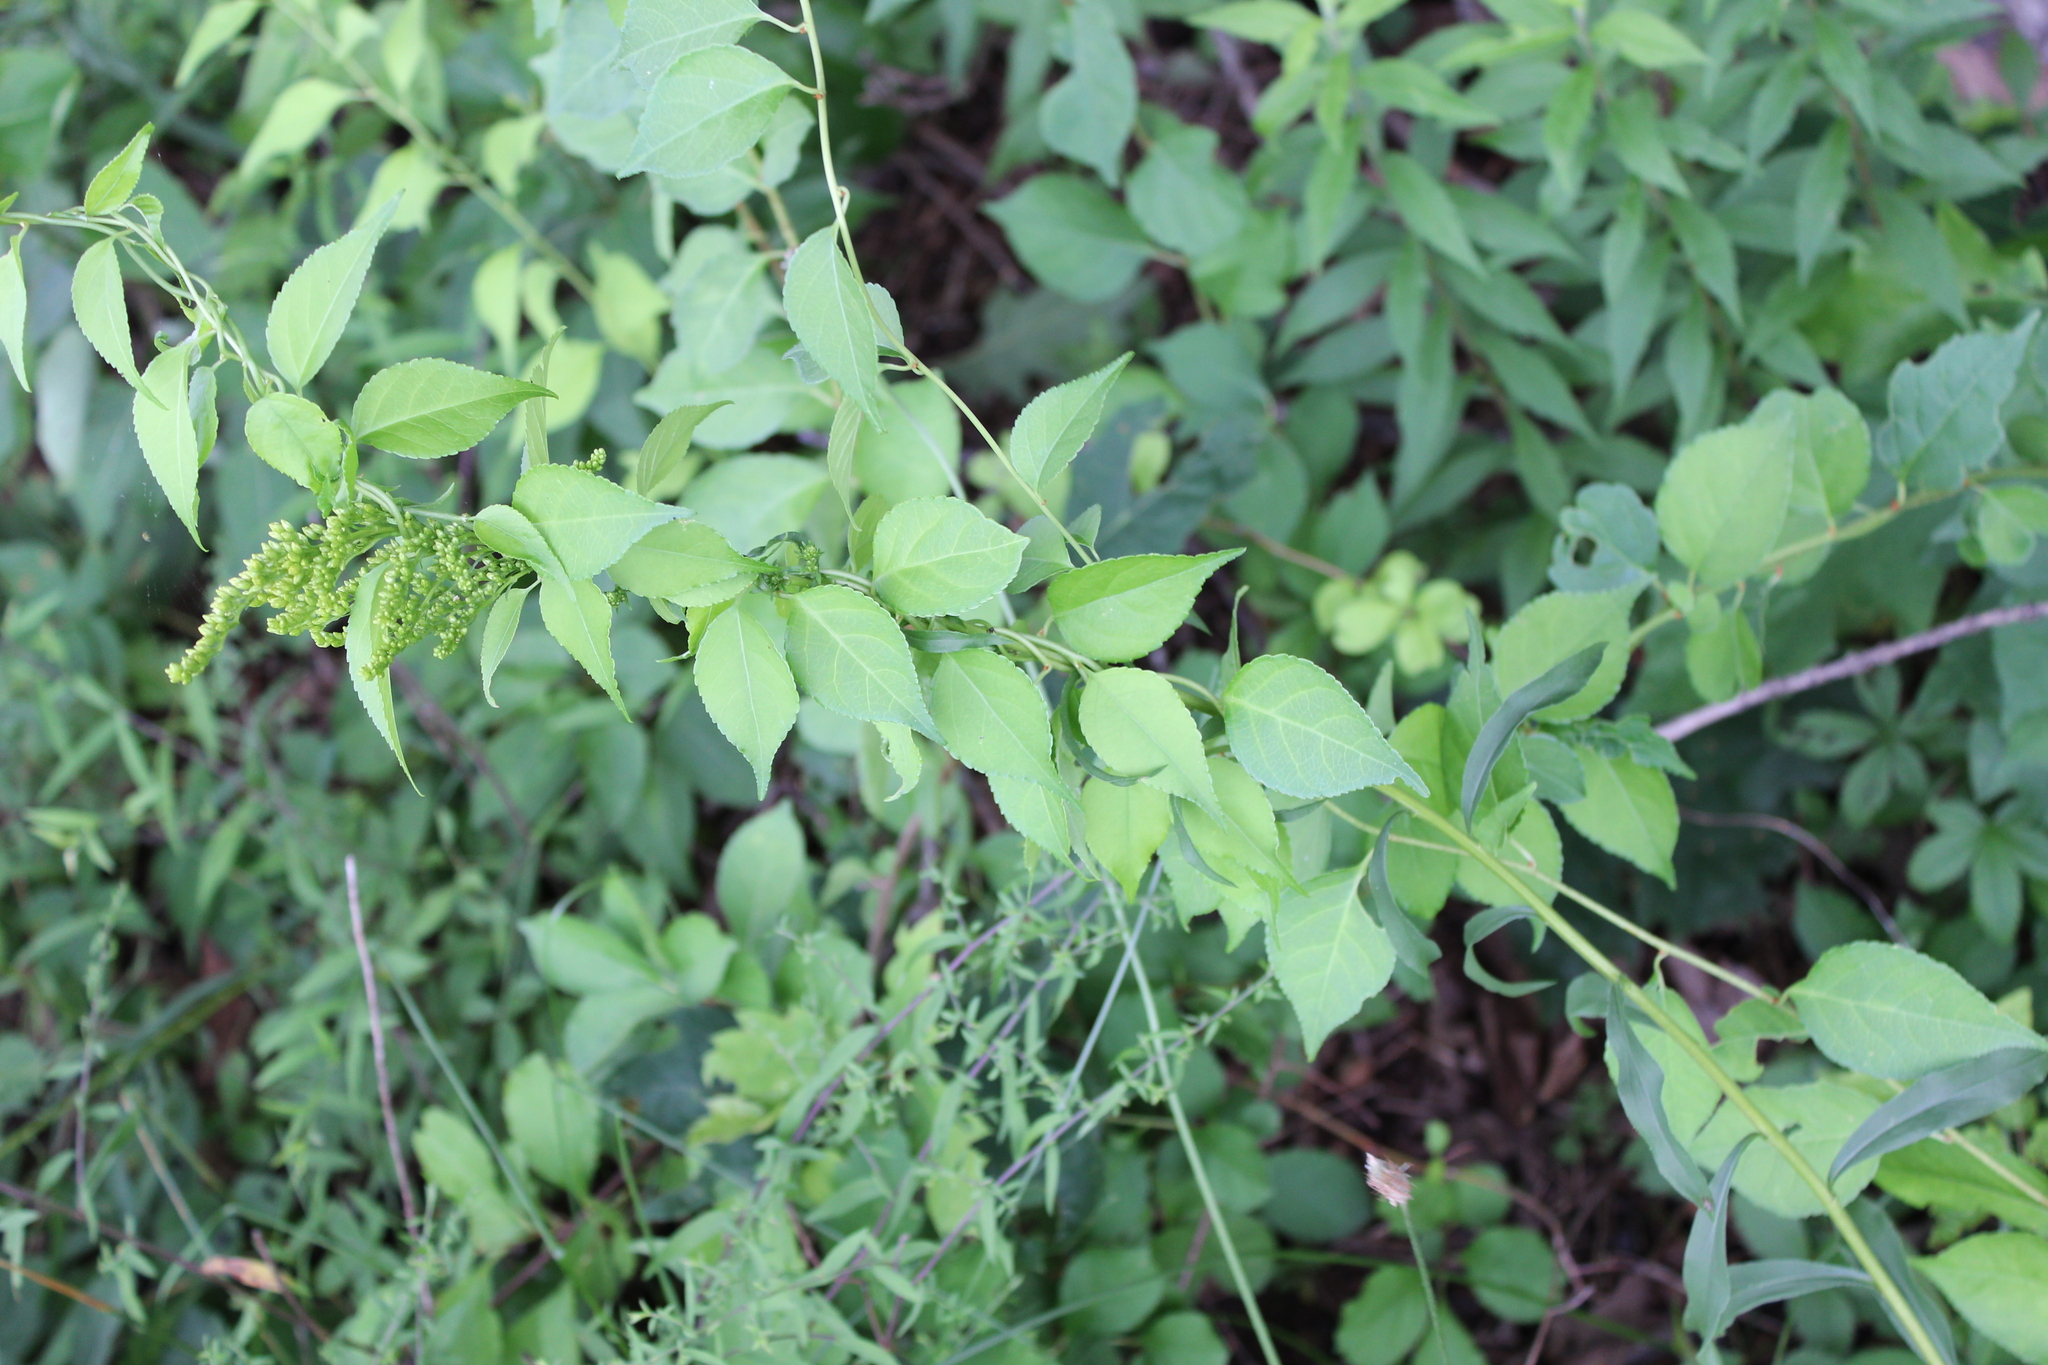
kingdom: Plantae
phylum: Tracheophyta
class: Magnoliopsida
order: Celastrales
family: Celastraceae
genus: Celastrus
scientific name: Celastrus orbiculatus
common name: Oriental bittersweet
